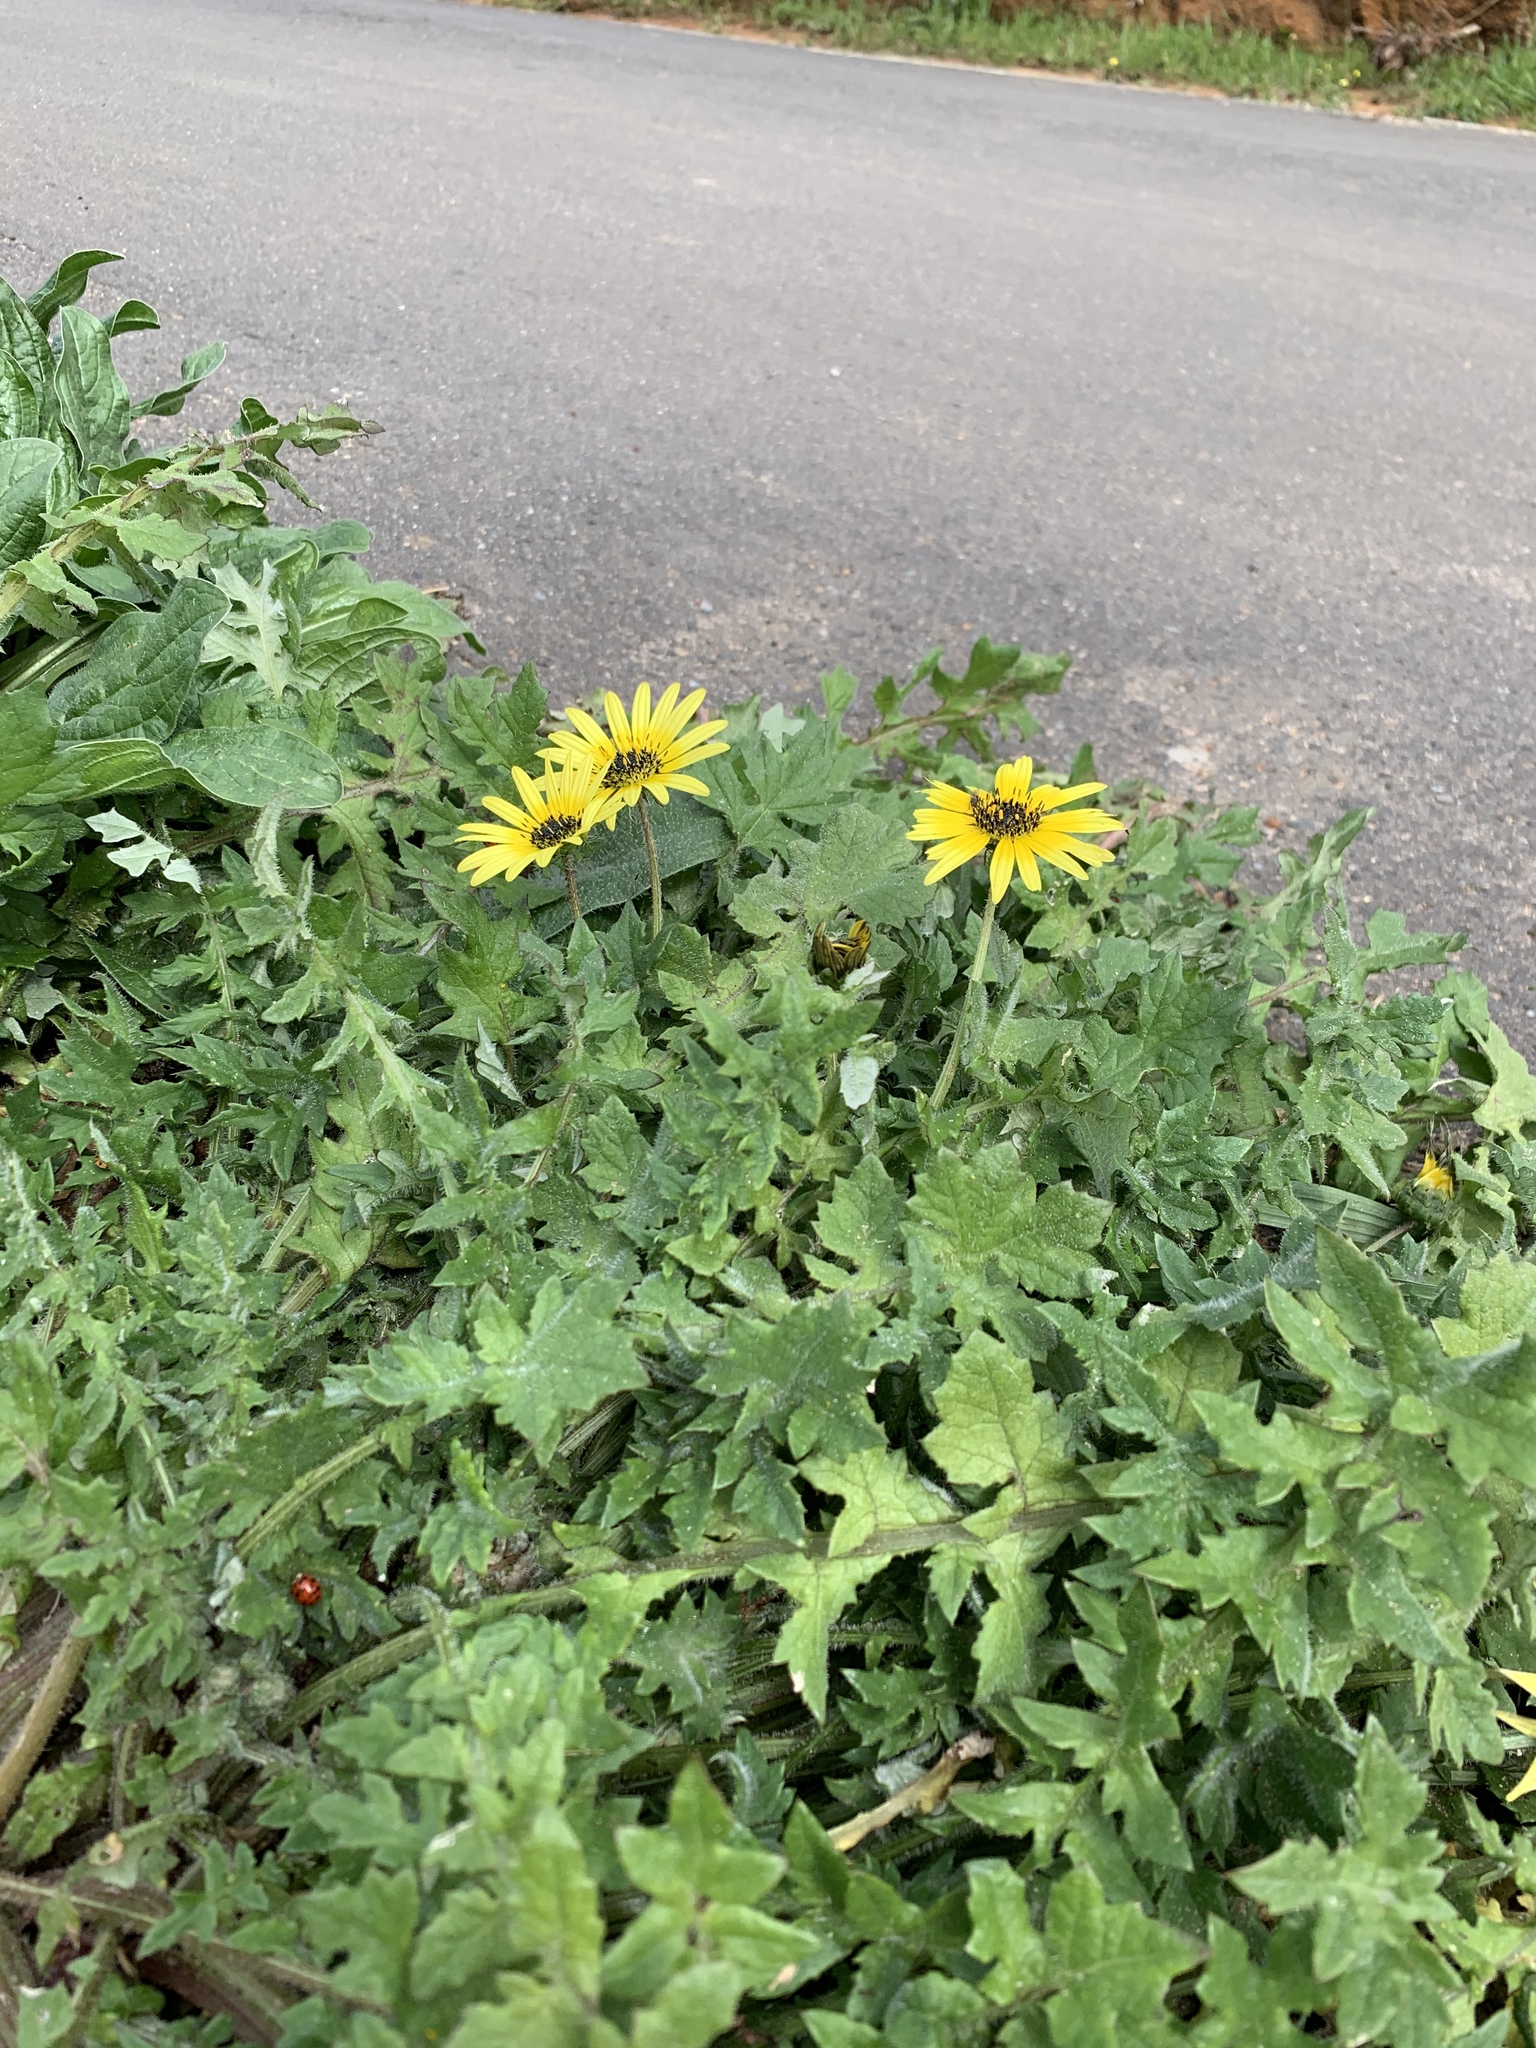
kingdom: Plantae
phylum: Tracheophyta
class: Magnoliopsida
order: Asterales
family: Asteraceae
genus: Arctotheca
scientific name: Arctotheca calendula
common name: Capeweed
